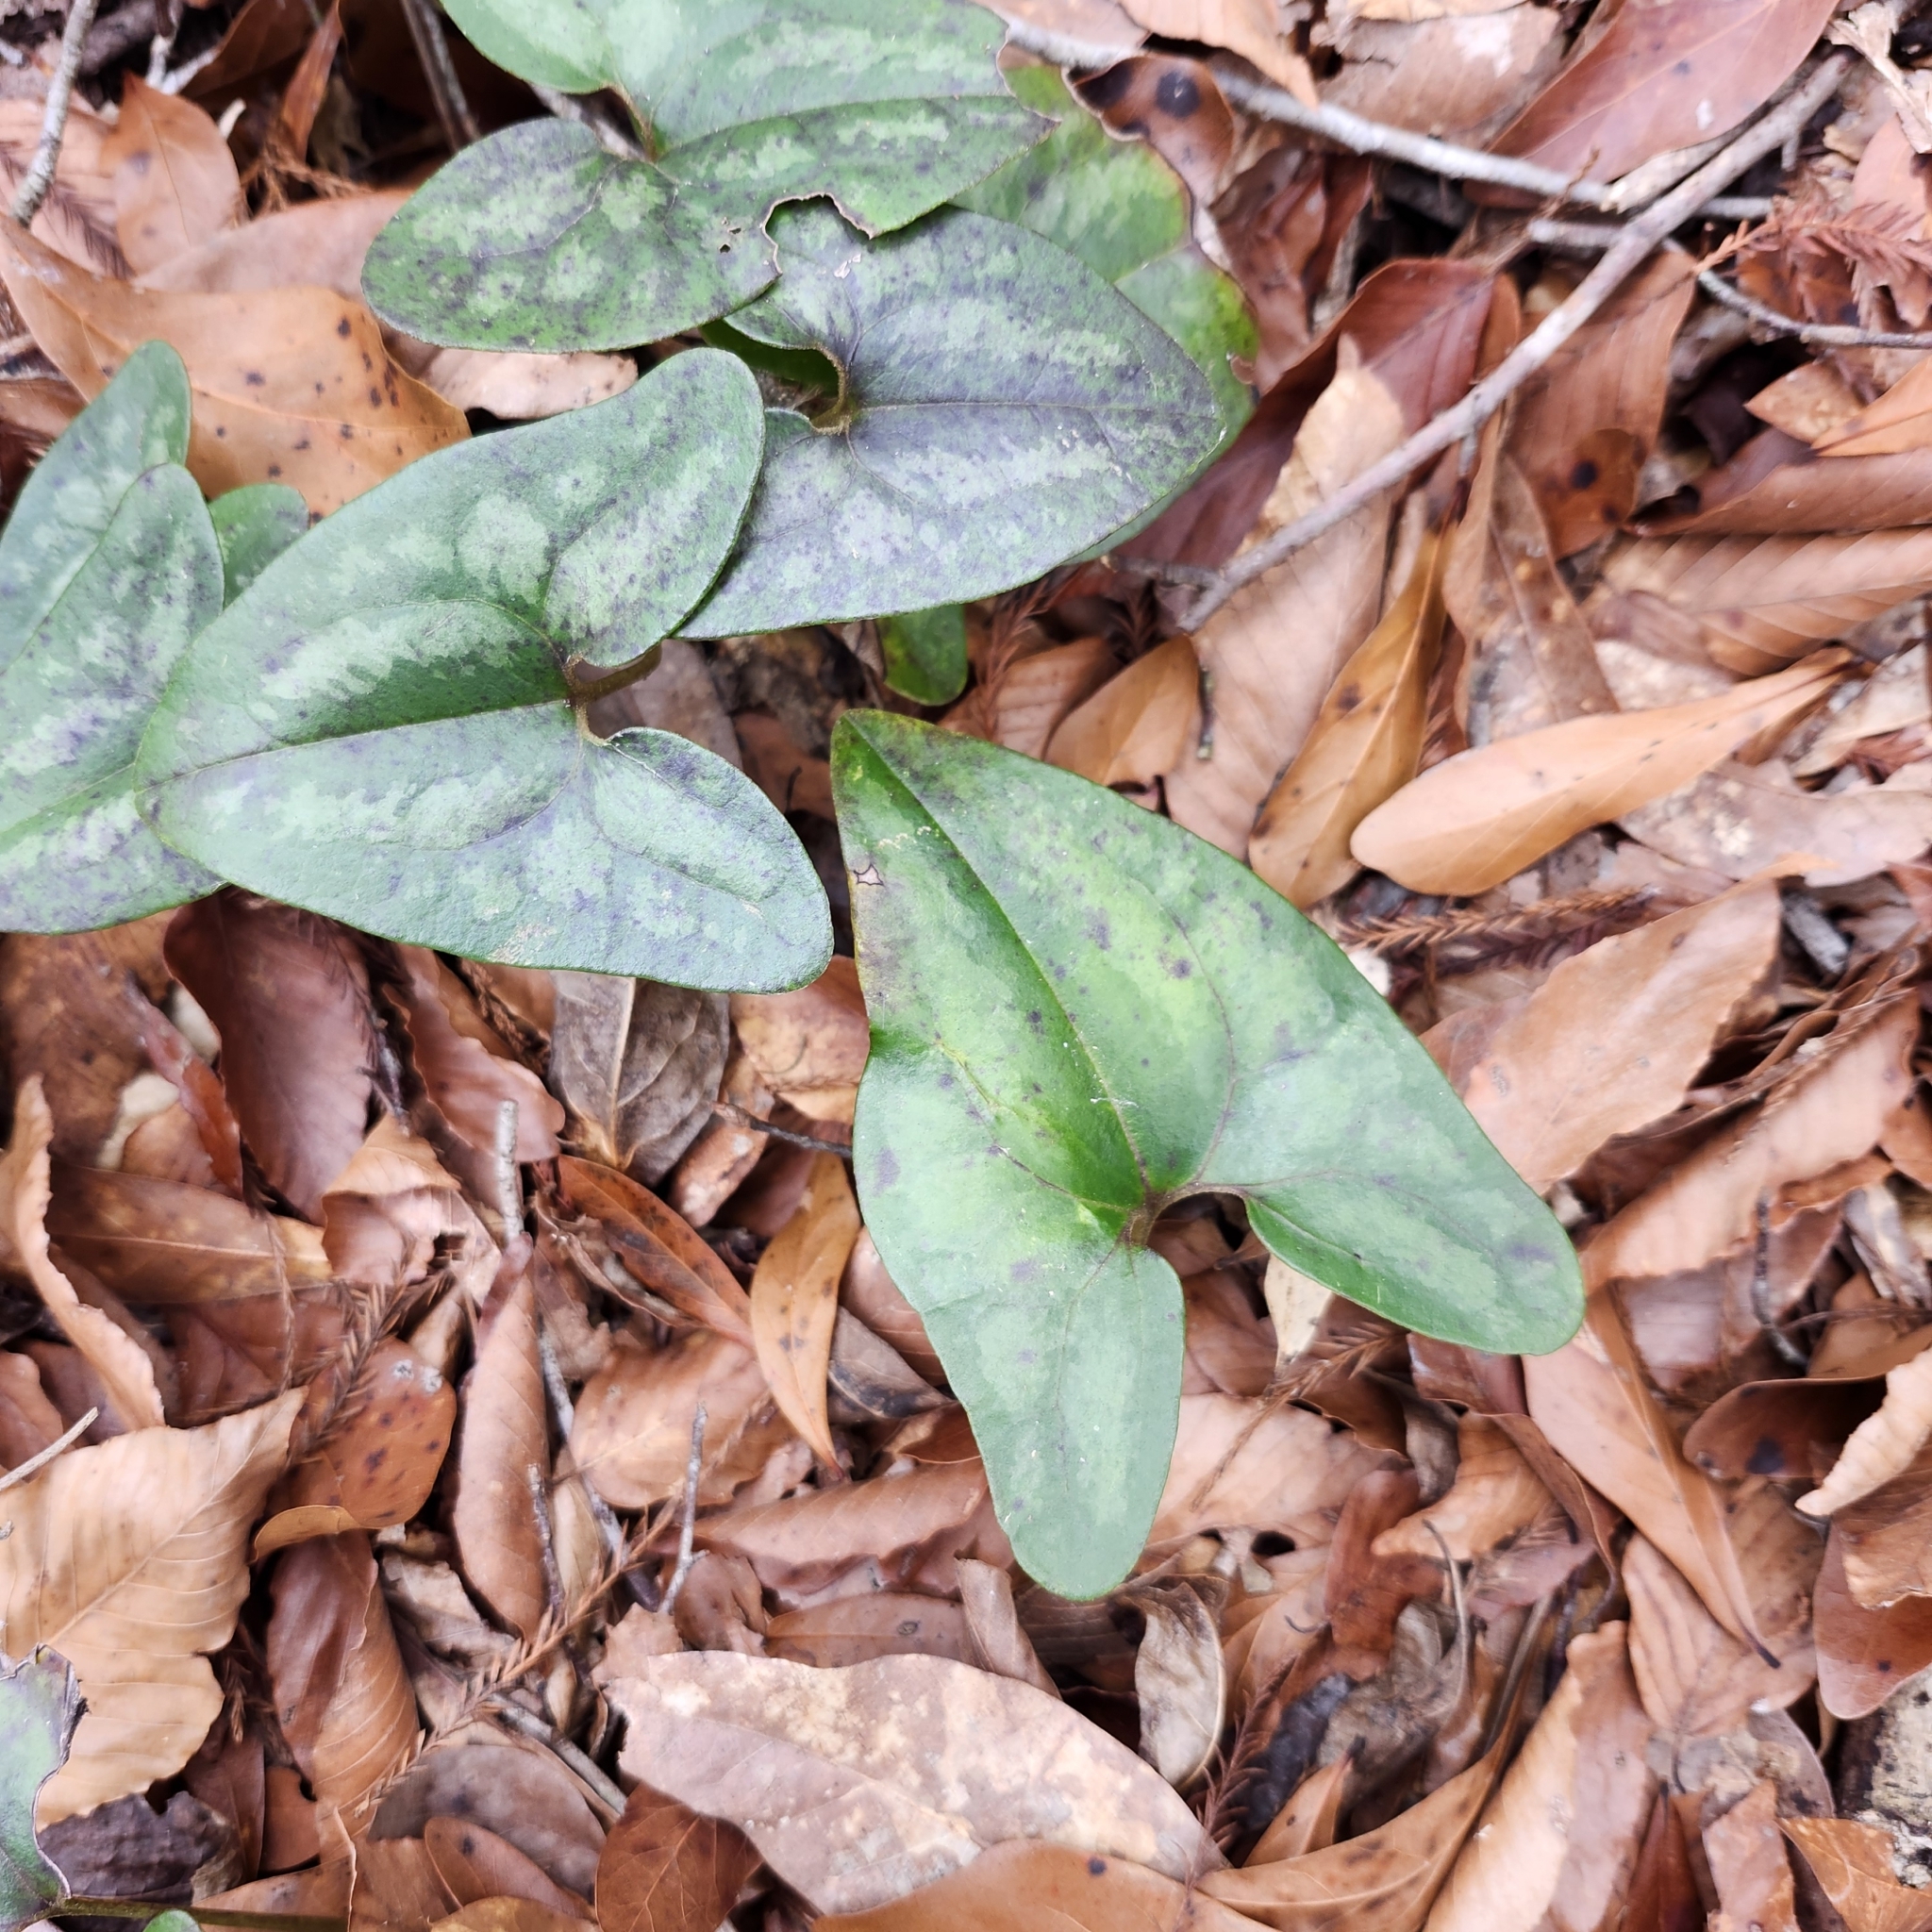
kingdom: Plantae
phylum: Tracheophyta
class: Magnoliopsida
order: Piperales
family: Aristolochiaceae
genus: Hexastylis
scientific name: Hexastylis arifolia
